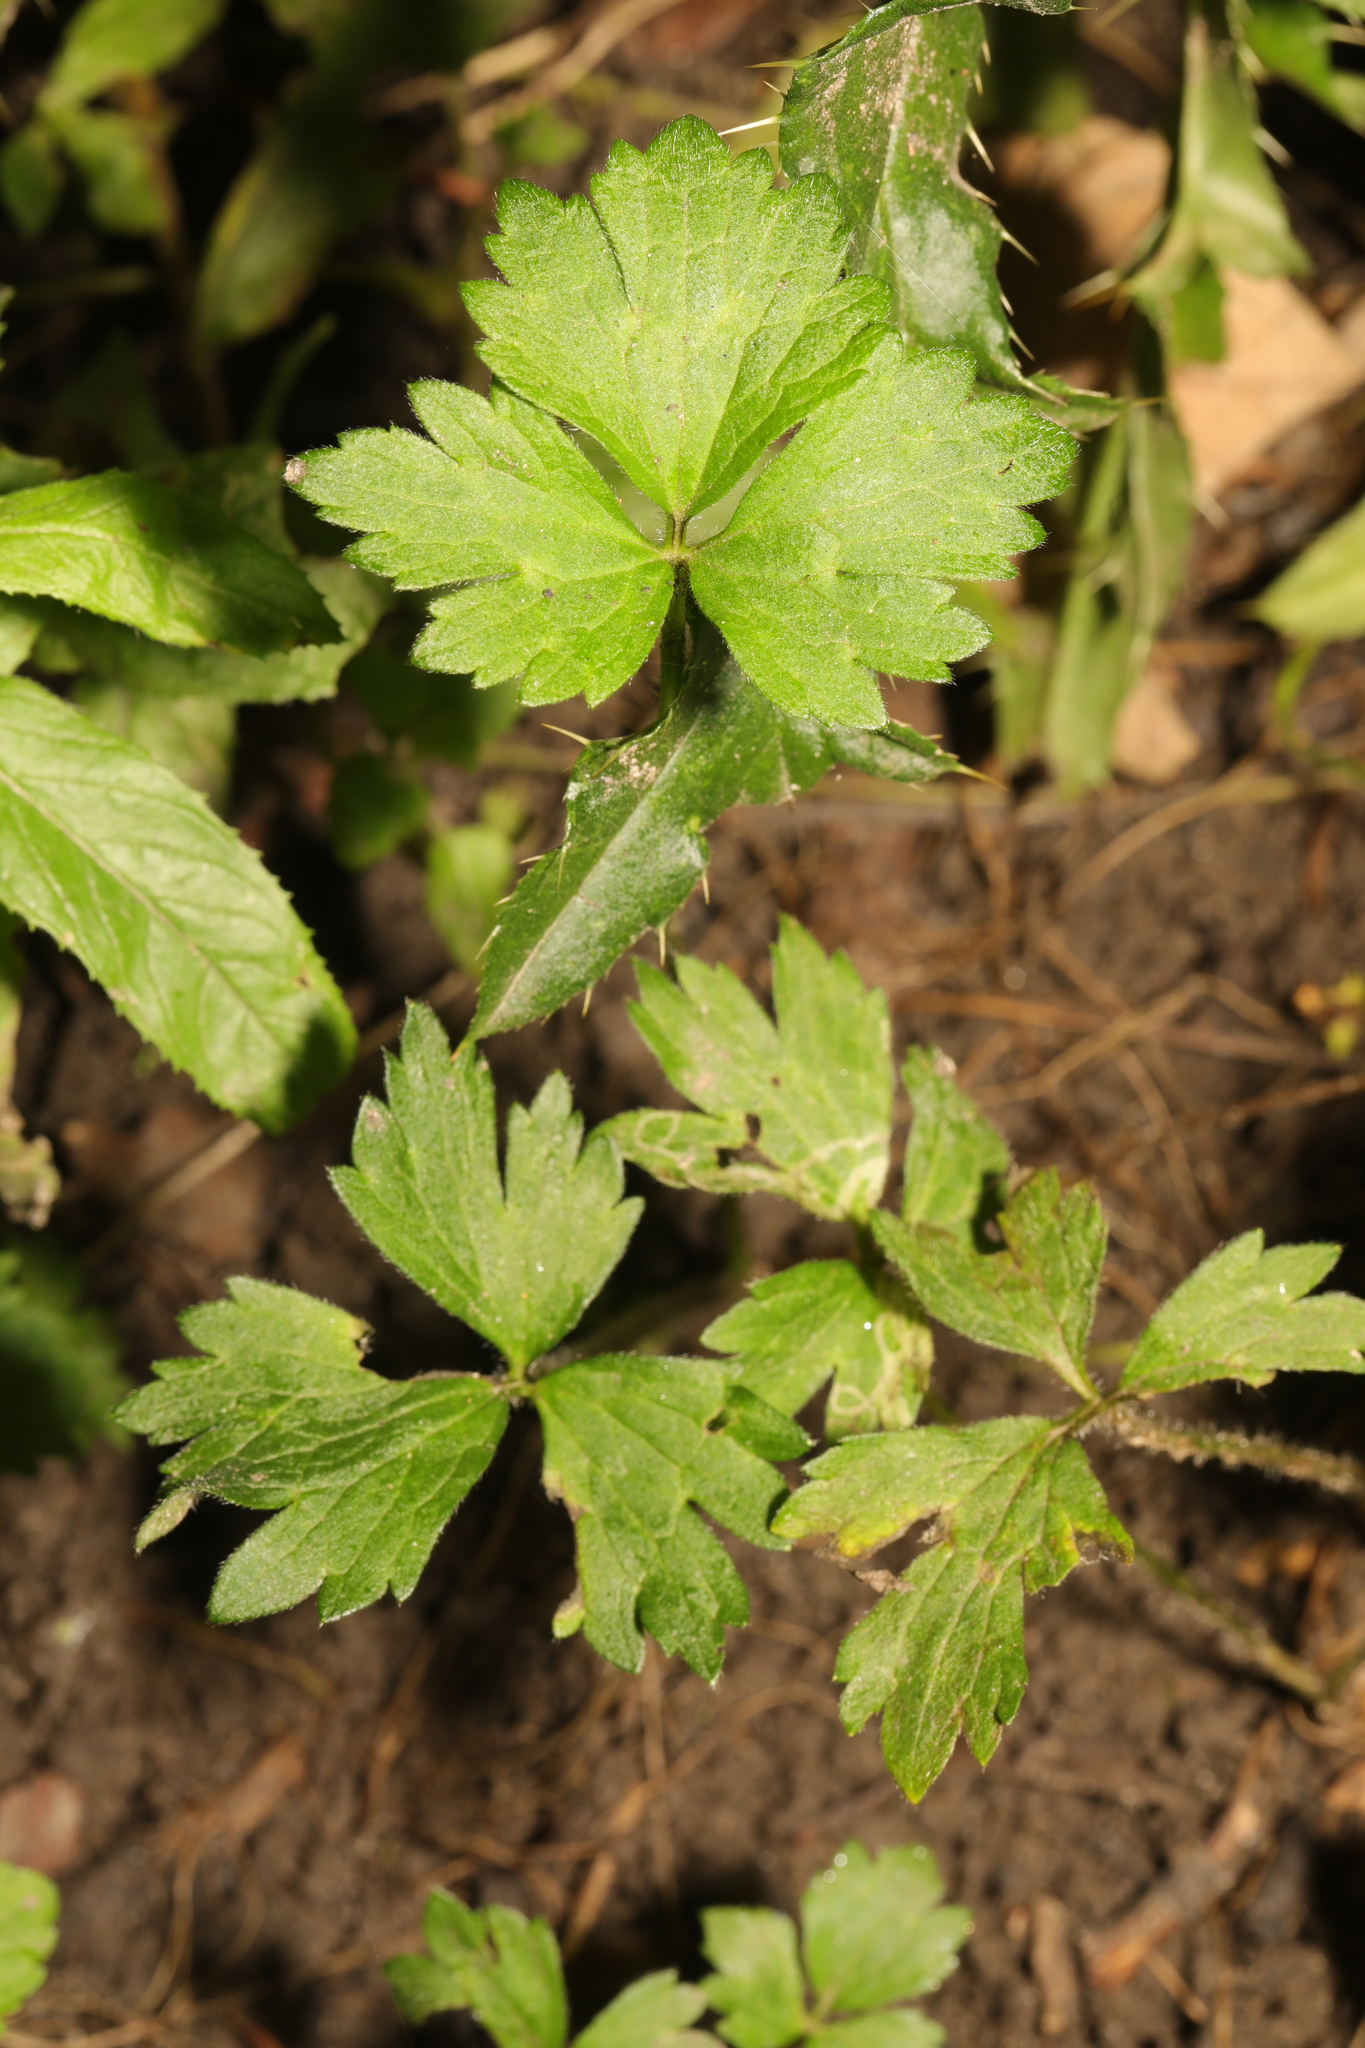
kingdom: Plantae
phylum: Tracheophyta
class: Magnoliopsida
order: Ranunculales
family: Ranunculaceae
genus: Ranunculus
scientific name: Ranunculus repens
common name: Creeping buttercup
